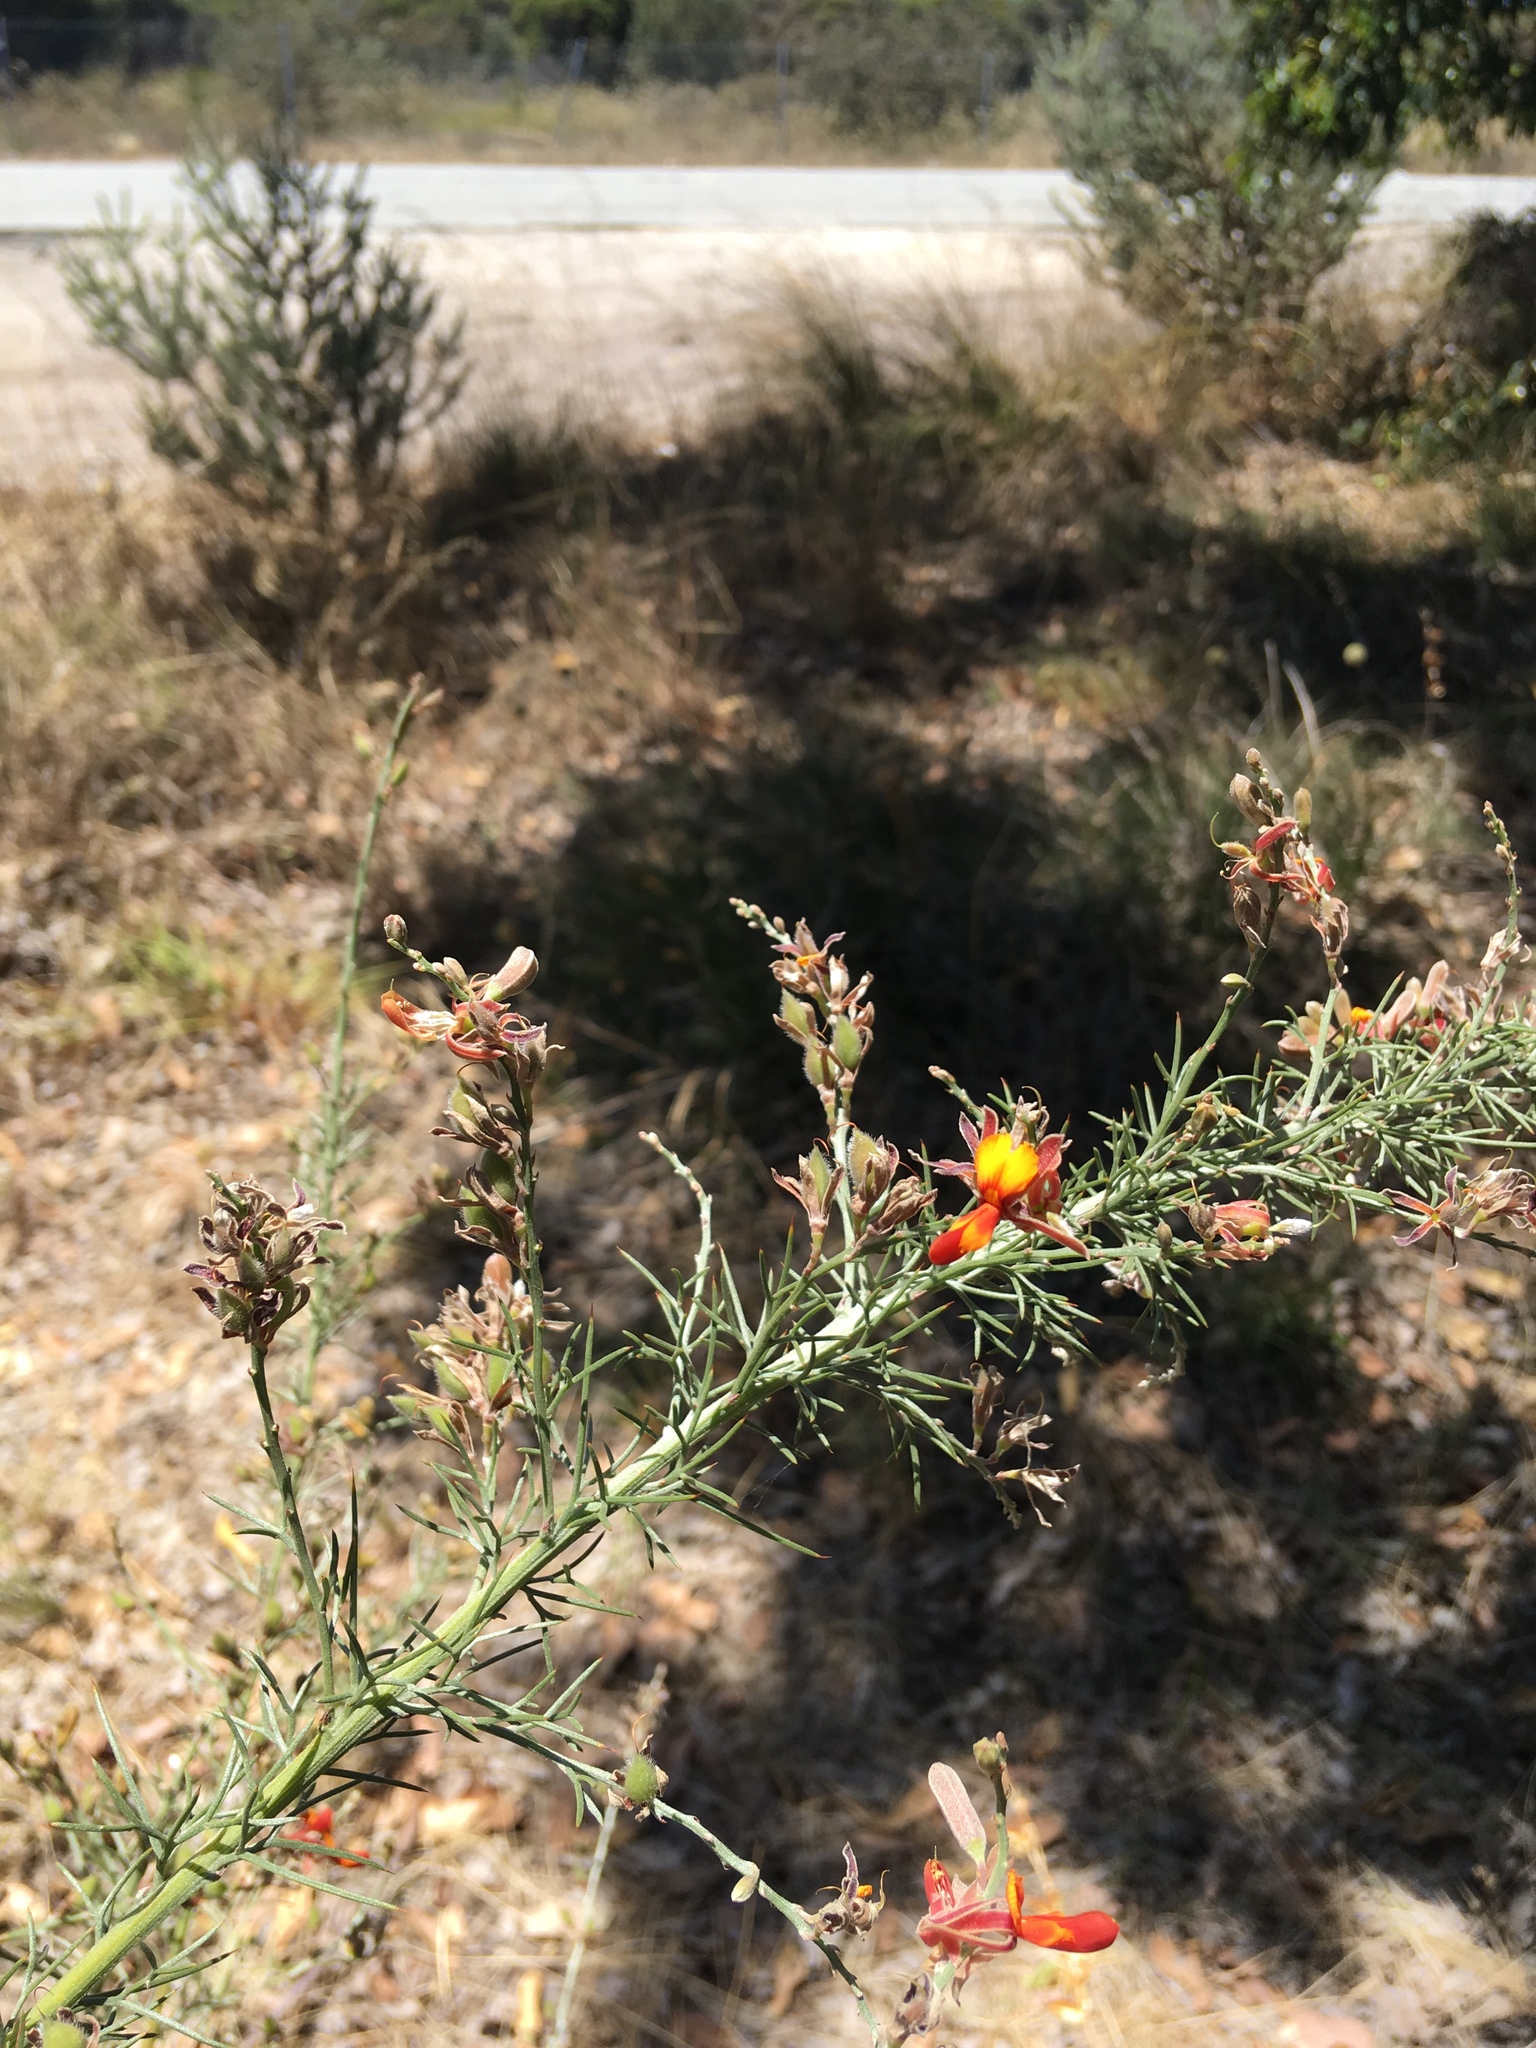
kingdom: Plantae
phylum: Tracheophyta
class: Magnoliopsida
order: Fabales
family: Fabaceae
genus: Jacksonia
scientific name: Jacksonia furcellata
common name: Grey stinkwood
